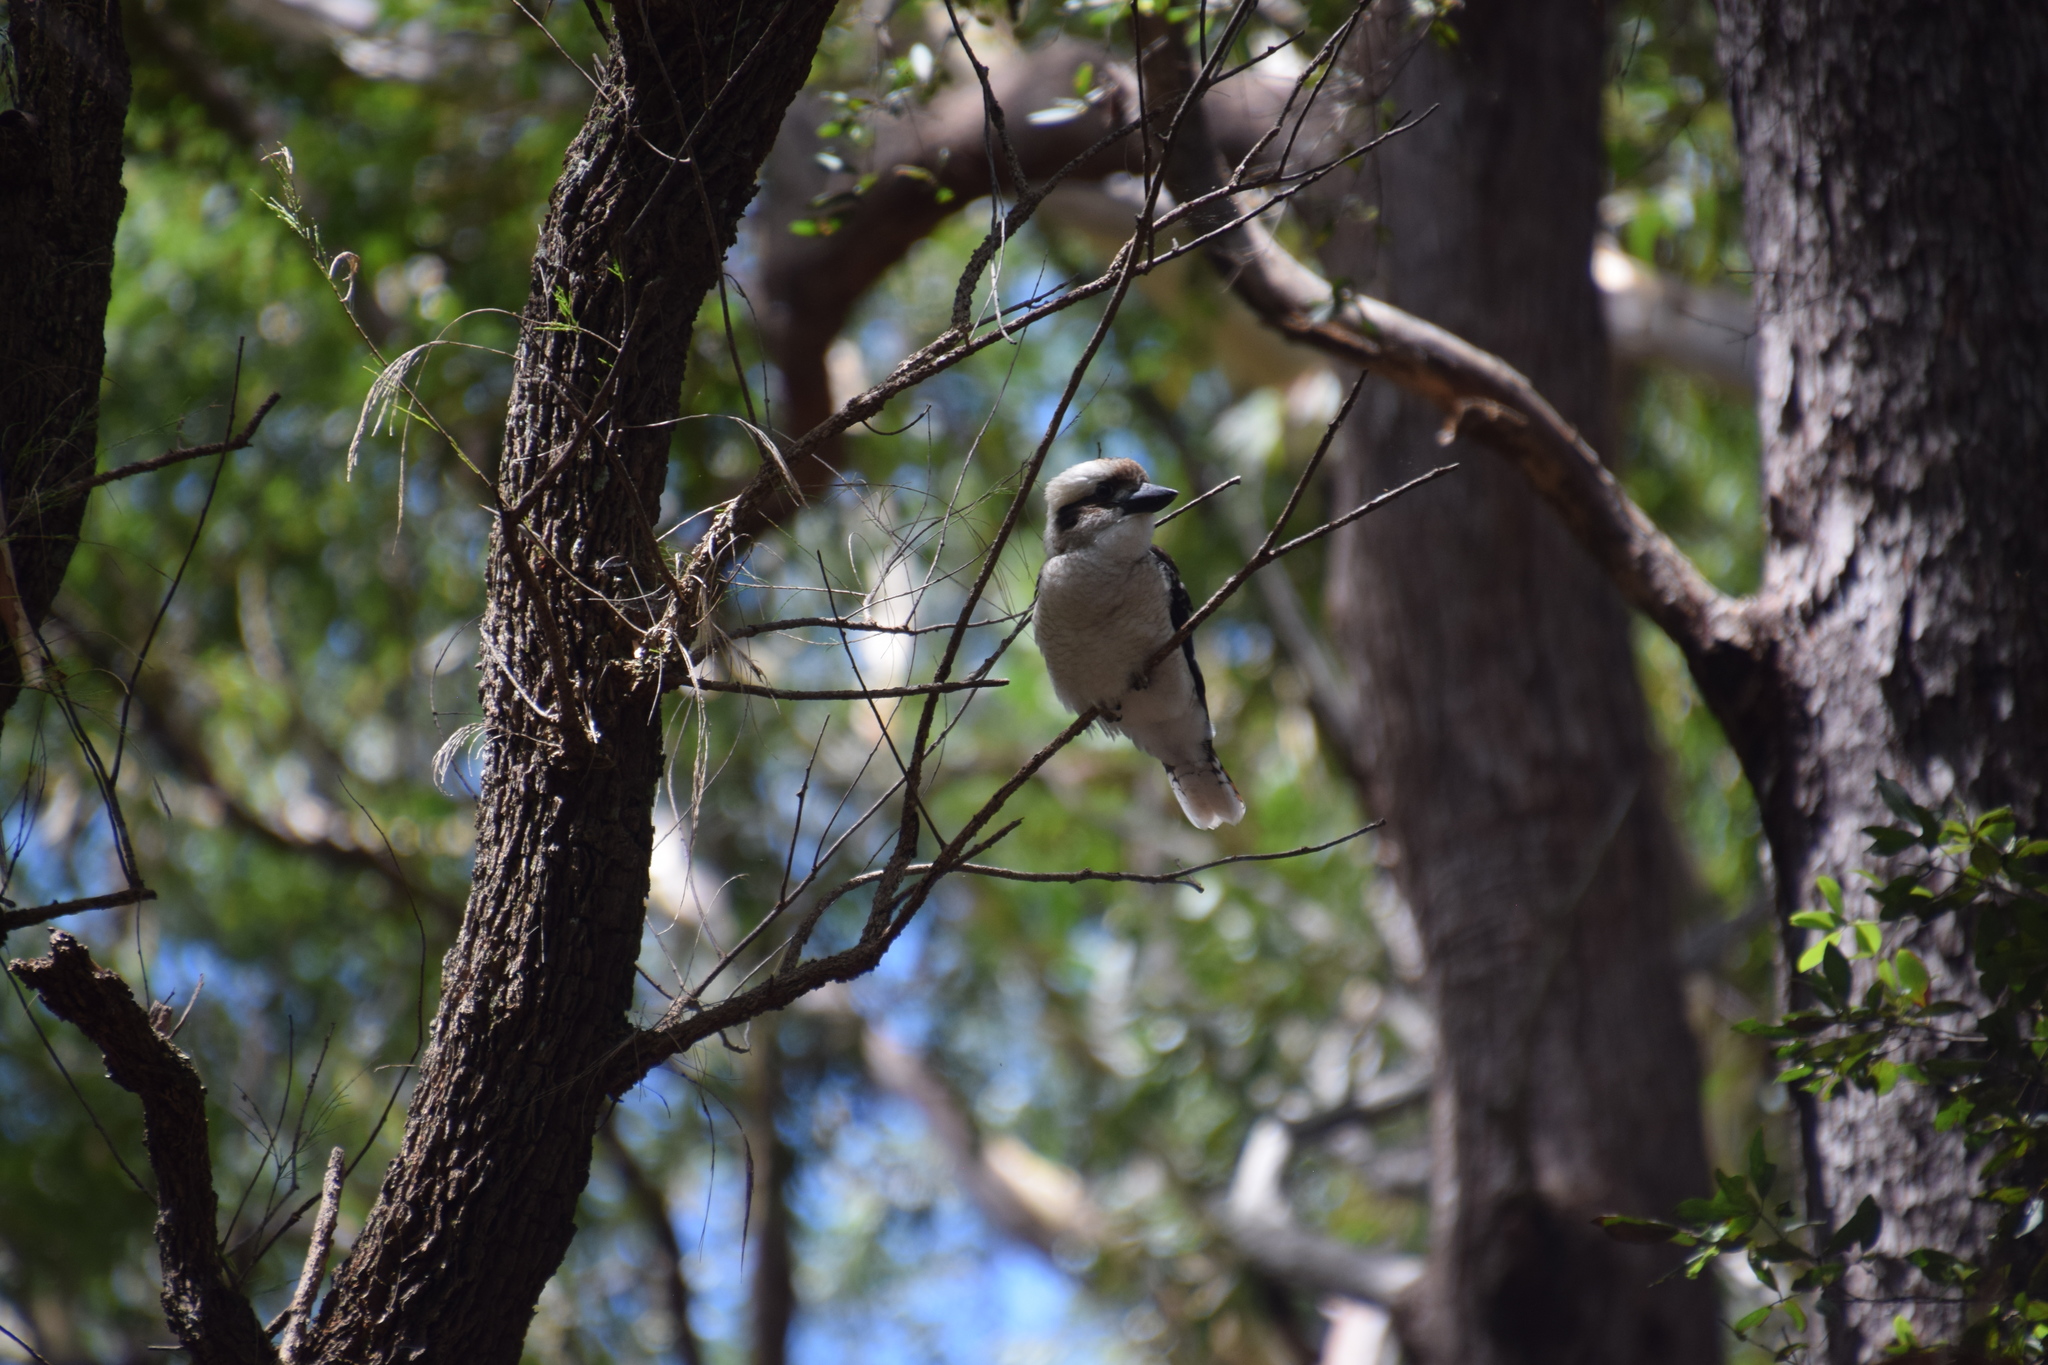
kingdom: Animalia
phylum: Chordata
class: Aves
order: Coraciiformes
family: Alcedinidae
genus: Dacelo
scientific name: Dacelo novaeguineae
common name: Laughing kookaburra
